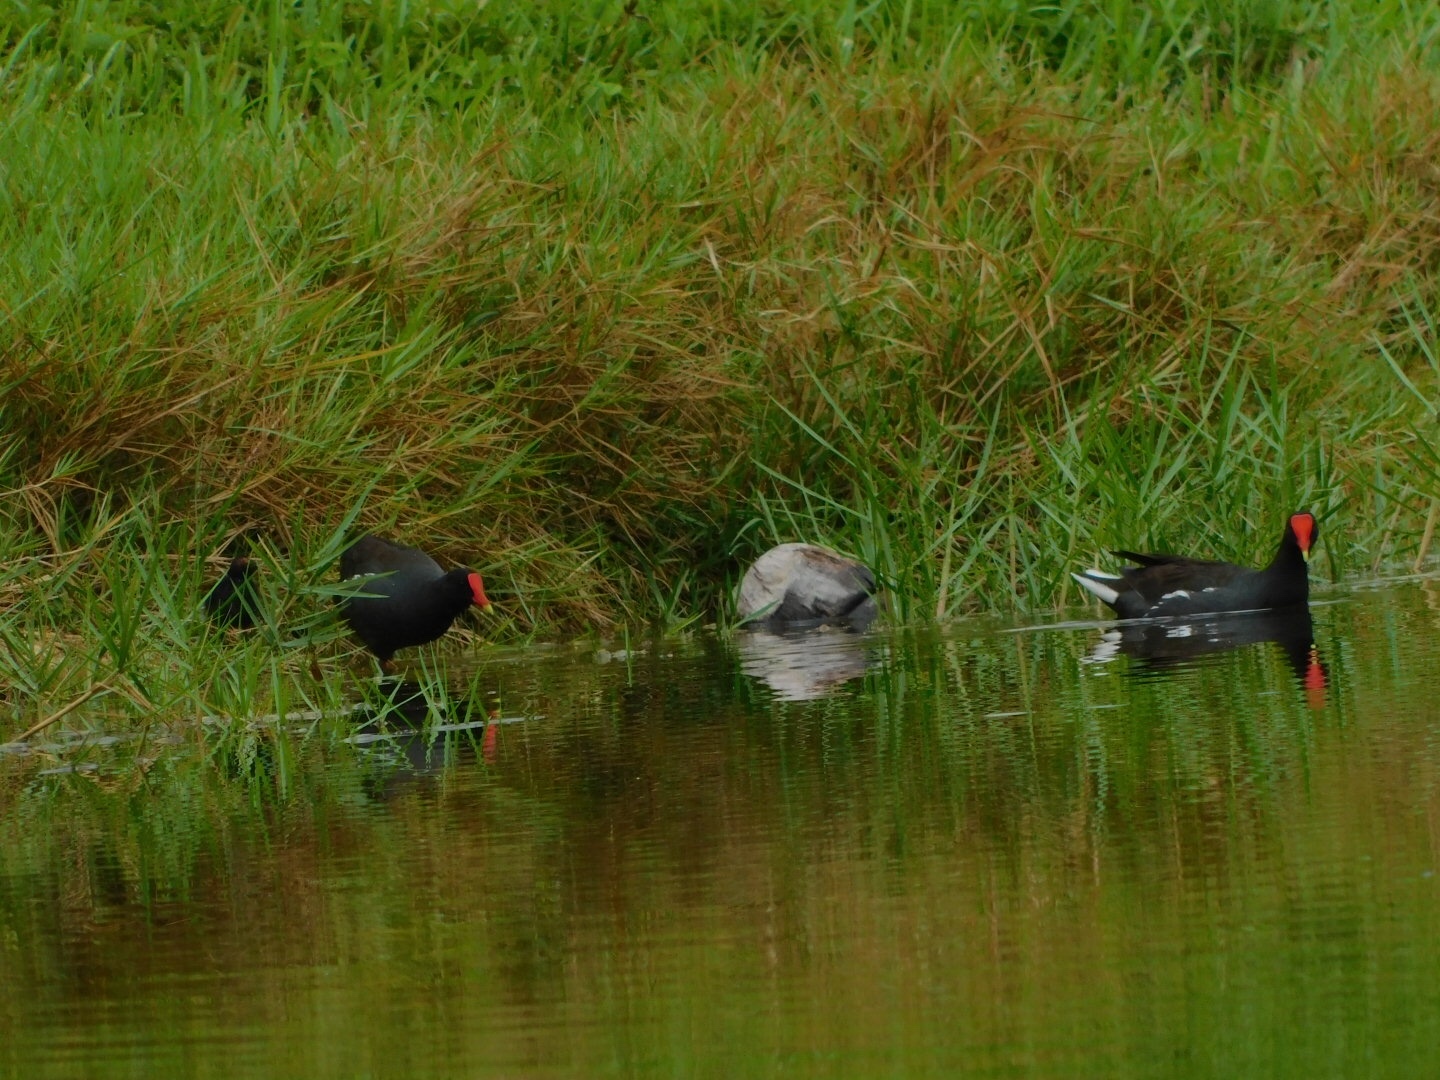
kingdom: Animalia
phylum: Chordata
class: Aves
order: Gruiformes
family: Rallidae
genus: Gallinula
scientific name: Gallinula chloropus
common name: Common moorhen
